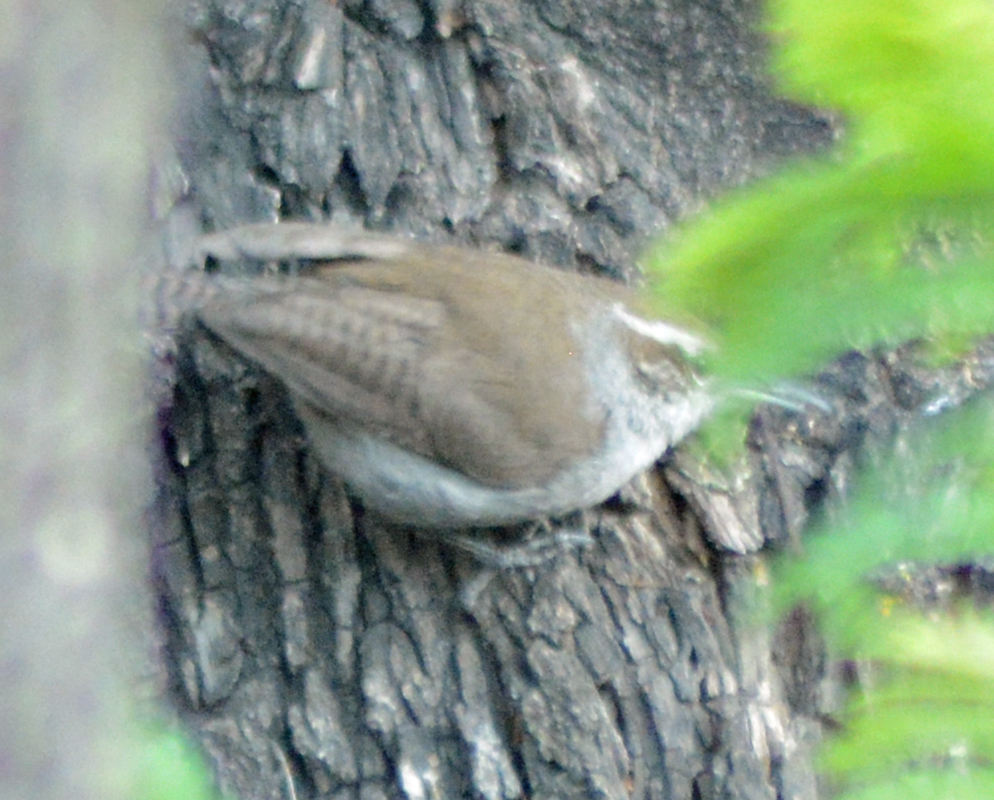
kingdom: Animalia
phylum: Chordata
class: Aves
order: Passeriformes
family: Troglodytidae
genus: Thryomanes
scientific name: Thryomanes bewickii
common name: Bewick's wren
